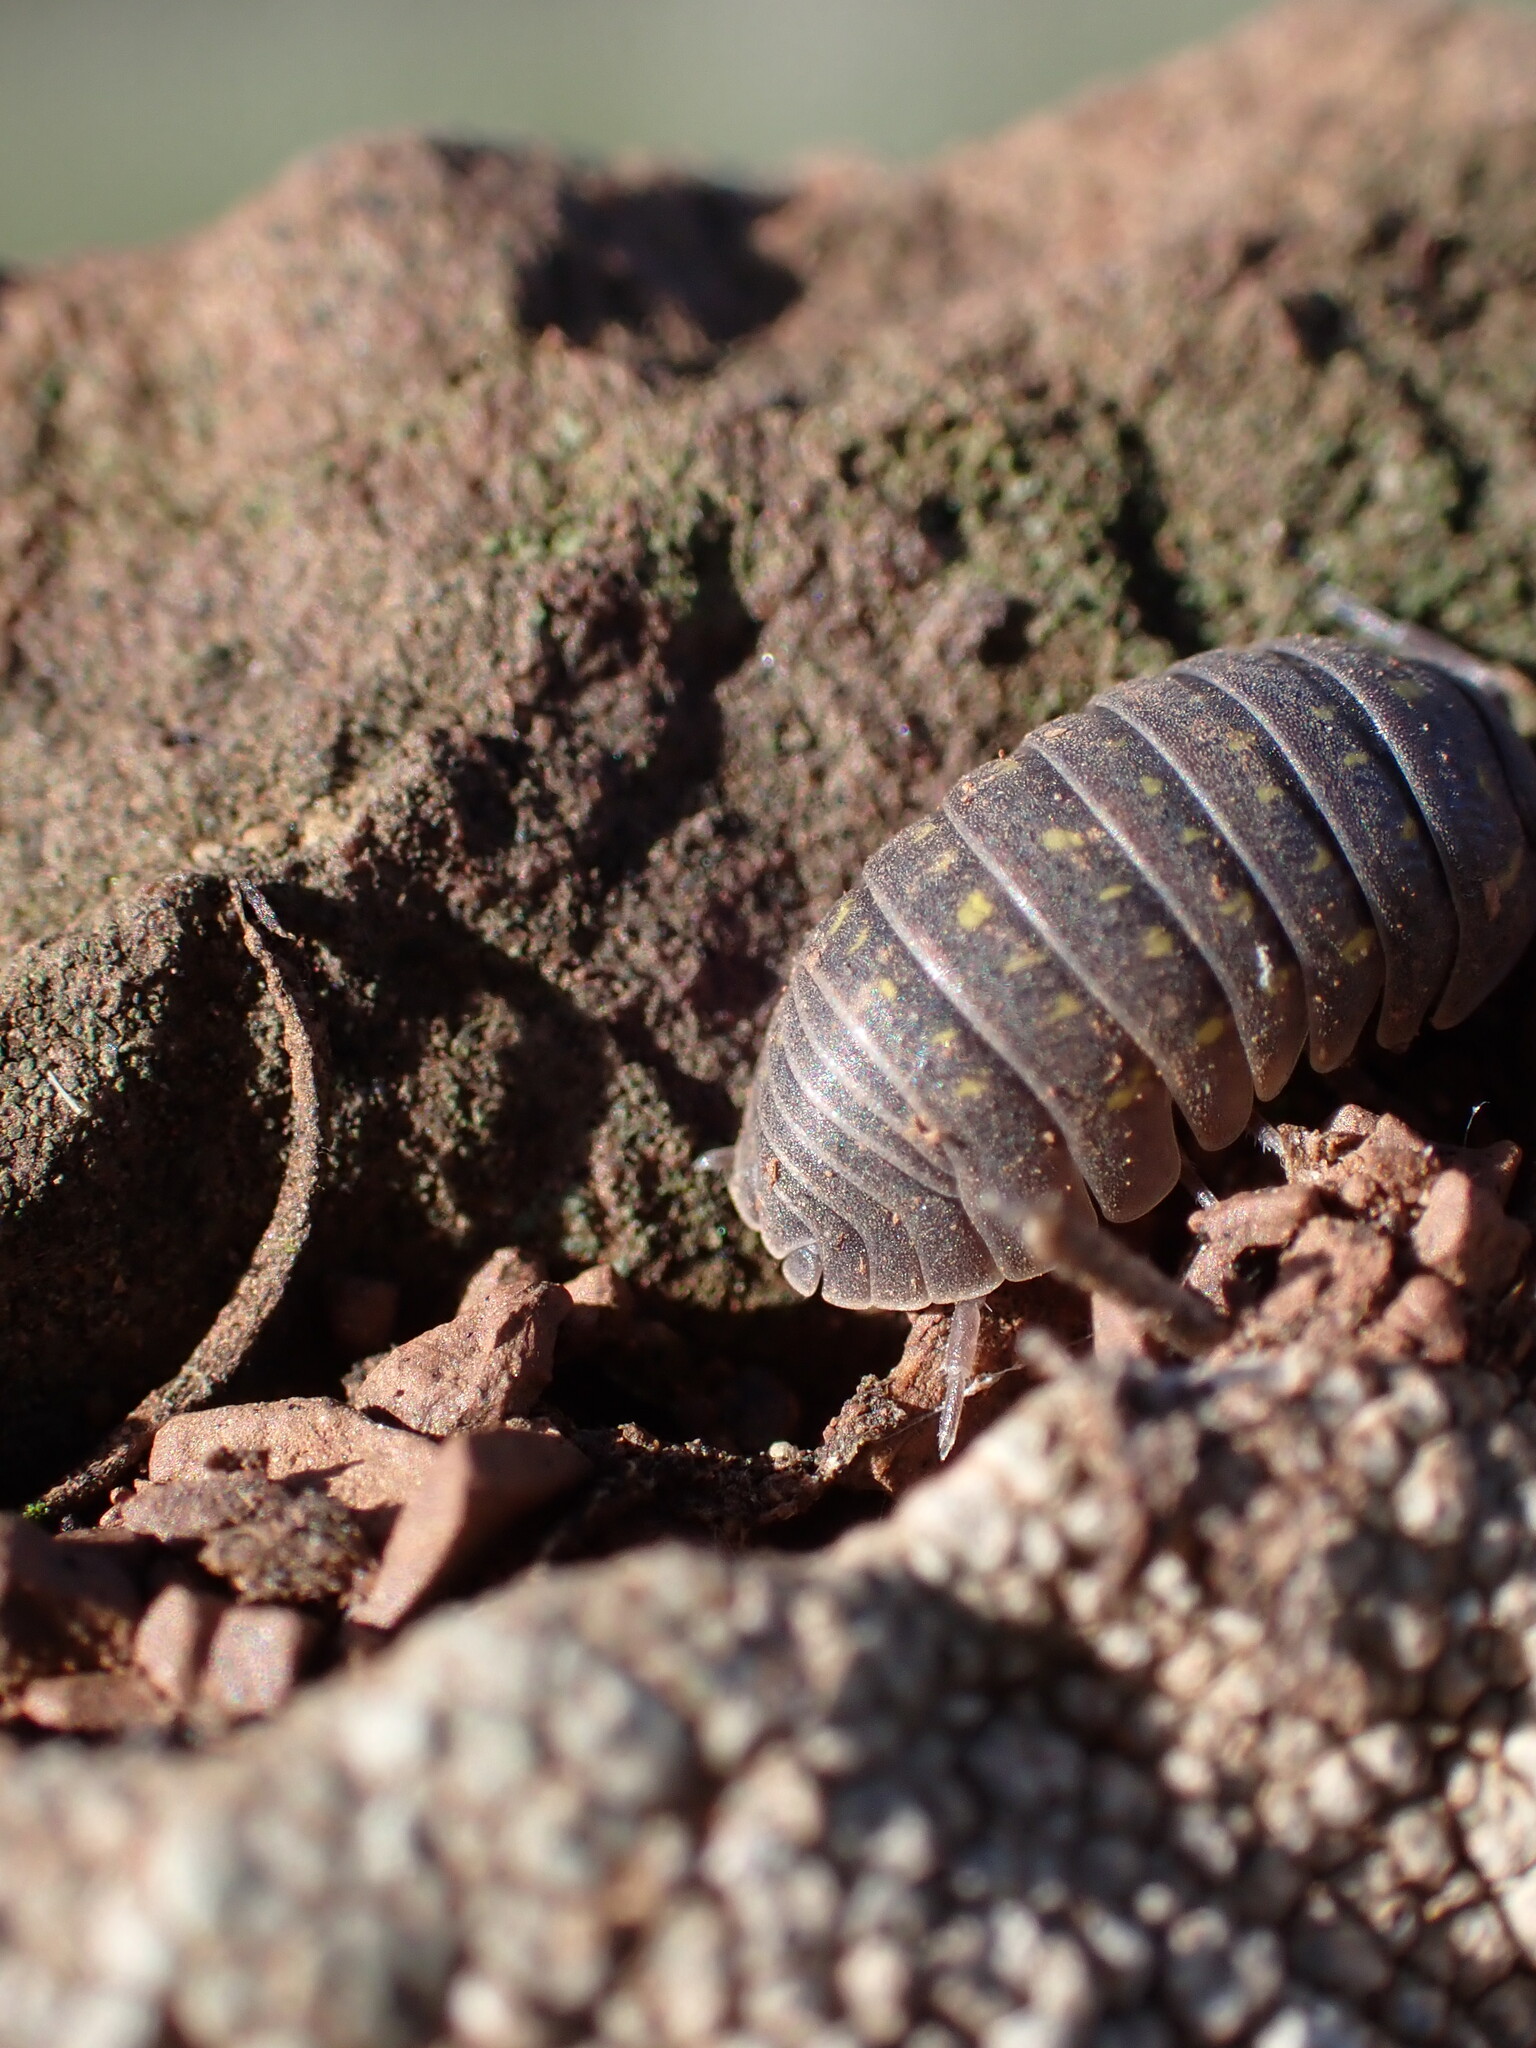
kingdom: Animalia
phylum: Arthropoda
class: Malacostraca
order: Isopoda
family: Armadillidiidae
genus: Armadillidium
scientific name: Armadillidium quinquepustulatum
